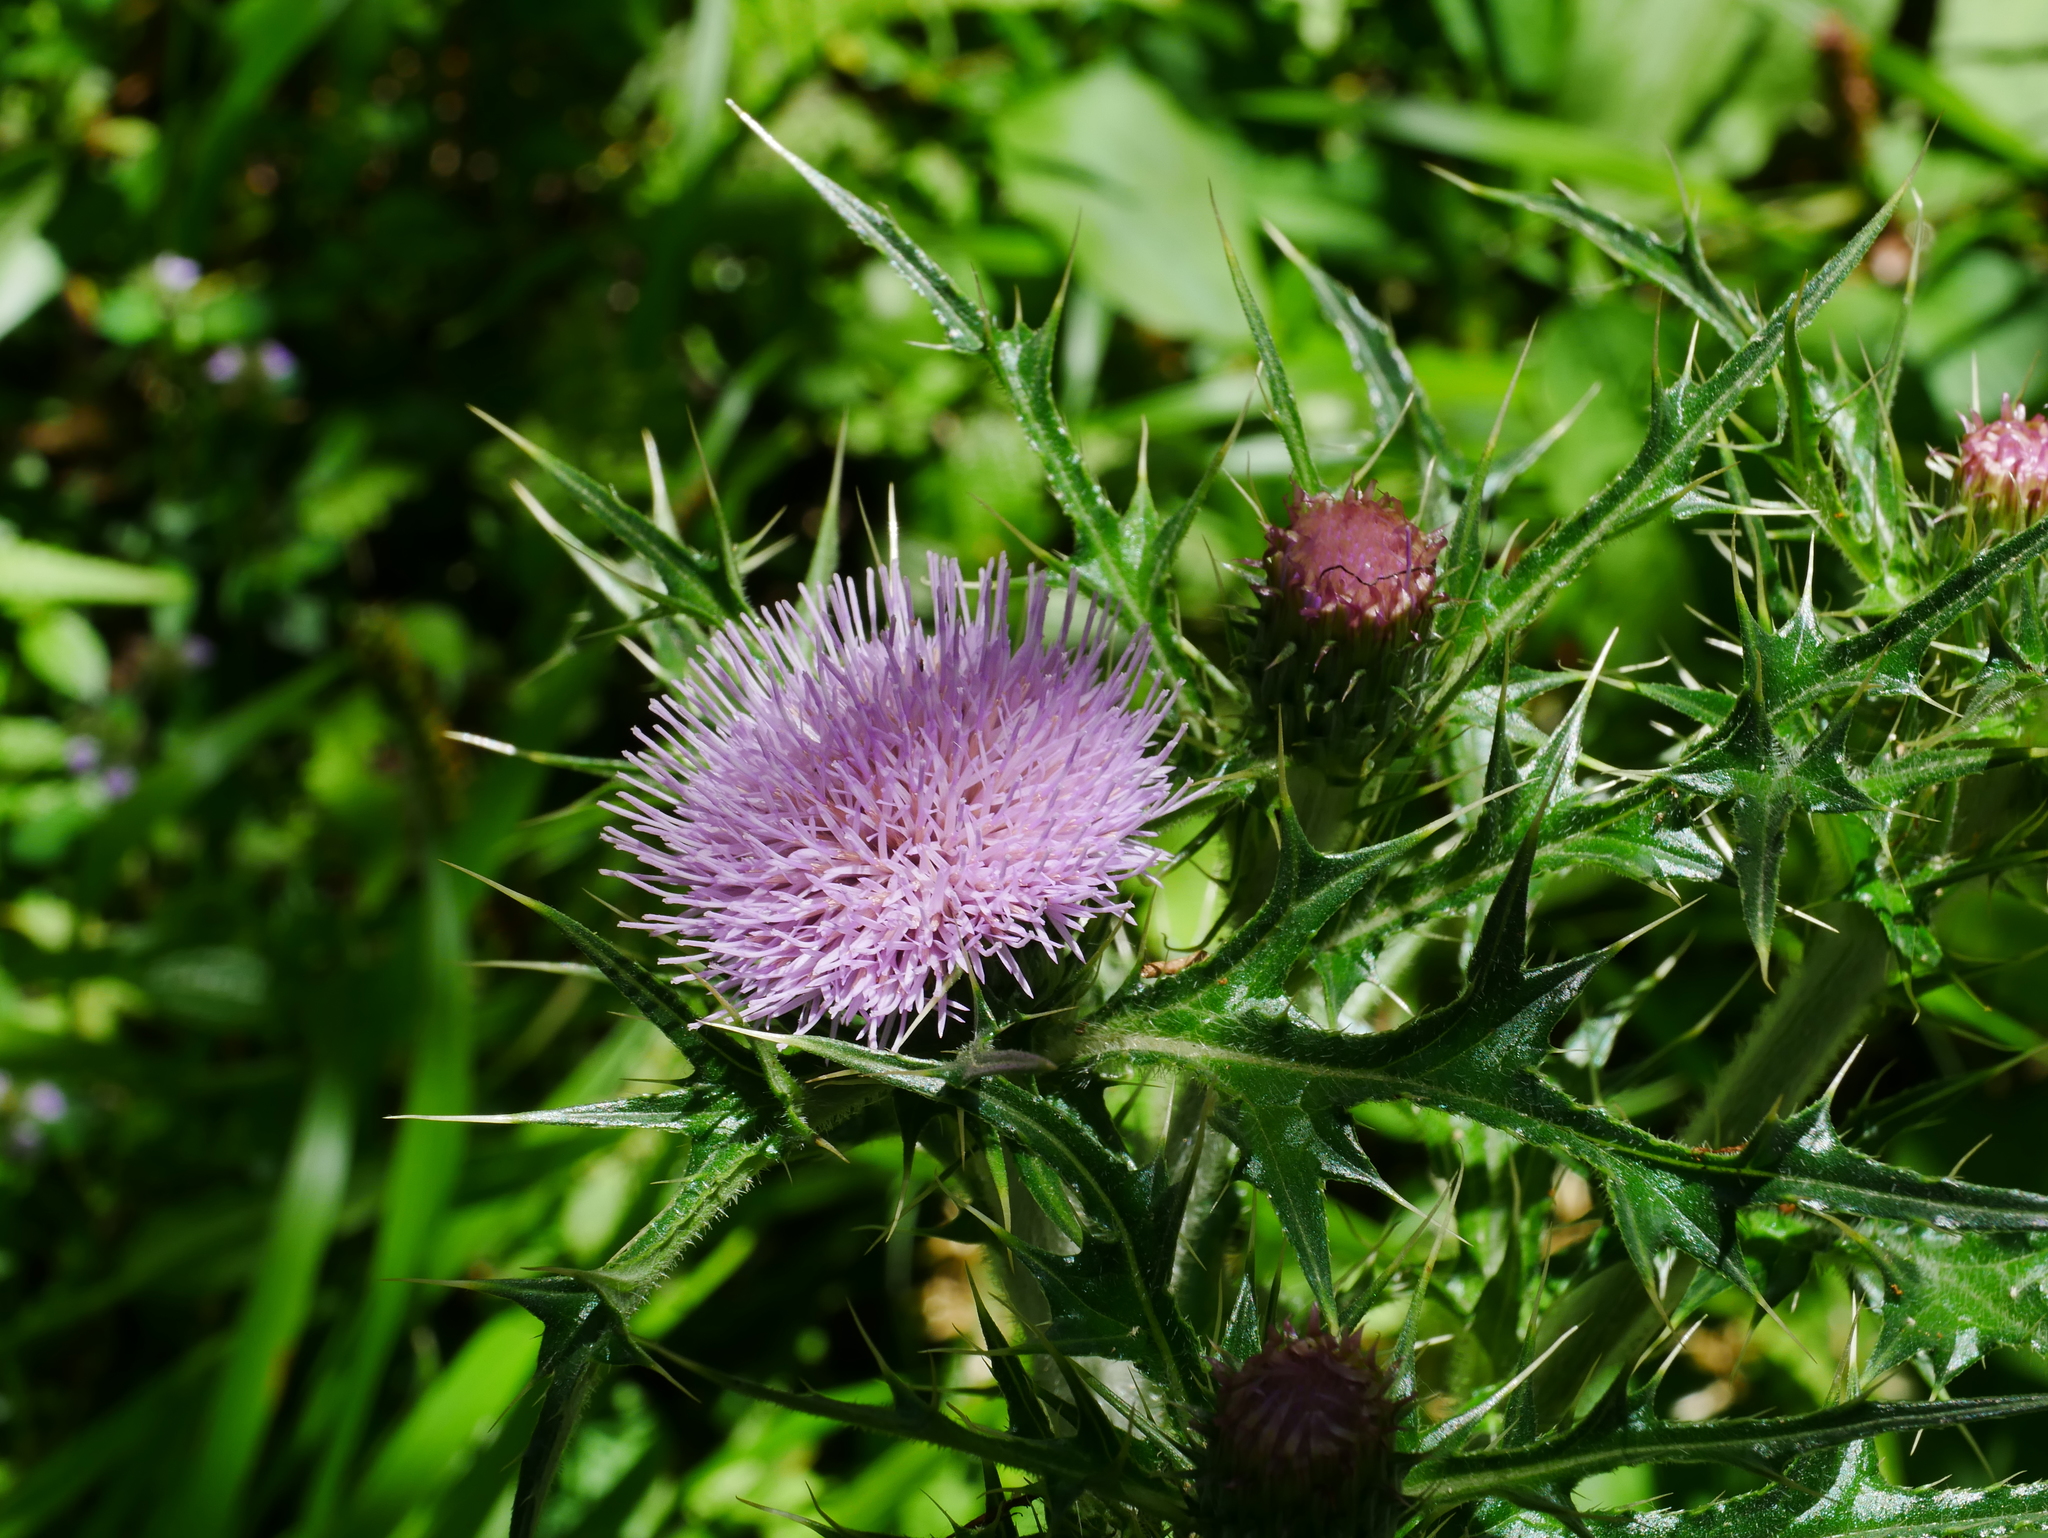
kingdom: Plantae
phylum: Tracheophyta
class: Magnoliopsida
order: Asterales
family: Asteraceae
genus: Cirsium
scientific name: Cirsium japonicum
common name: Japanese thistle
